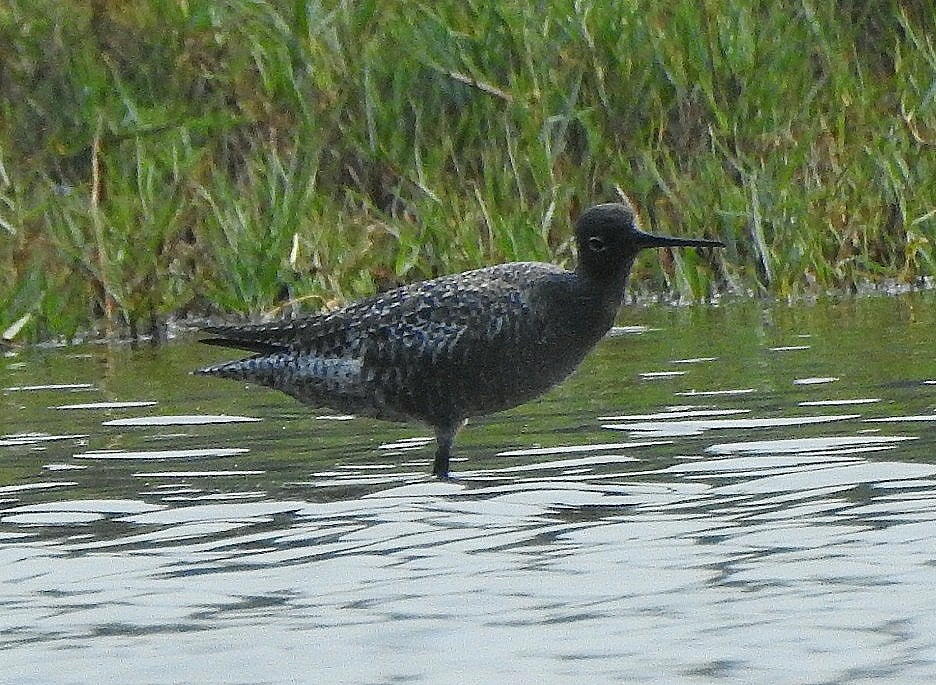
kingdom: Animalia
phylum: Chordata
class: Aves
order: Charadriiformes
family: Scolopacidae
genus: Tringa
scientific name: Tringa erythropus
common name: Spotted redshank
